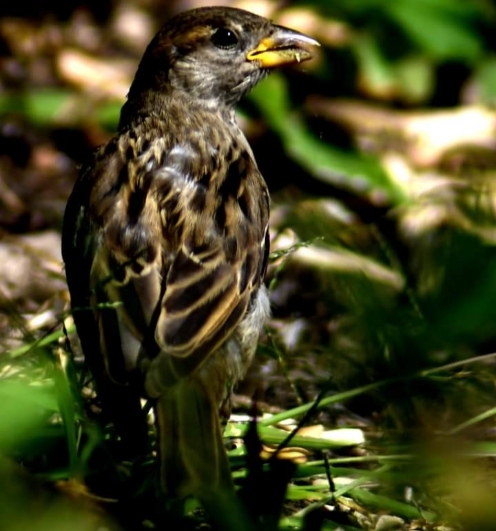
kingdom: Animalia
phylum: Chordata
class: Aves
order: Passeriformes
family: Passeridae
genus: Passer
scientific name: Passer domesticus
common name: House sparrow
